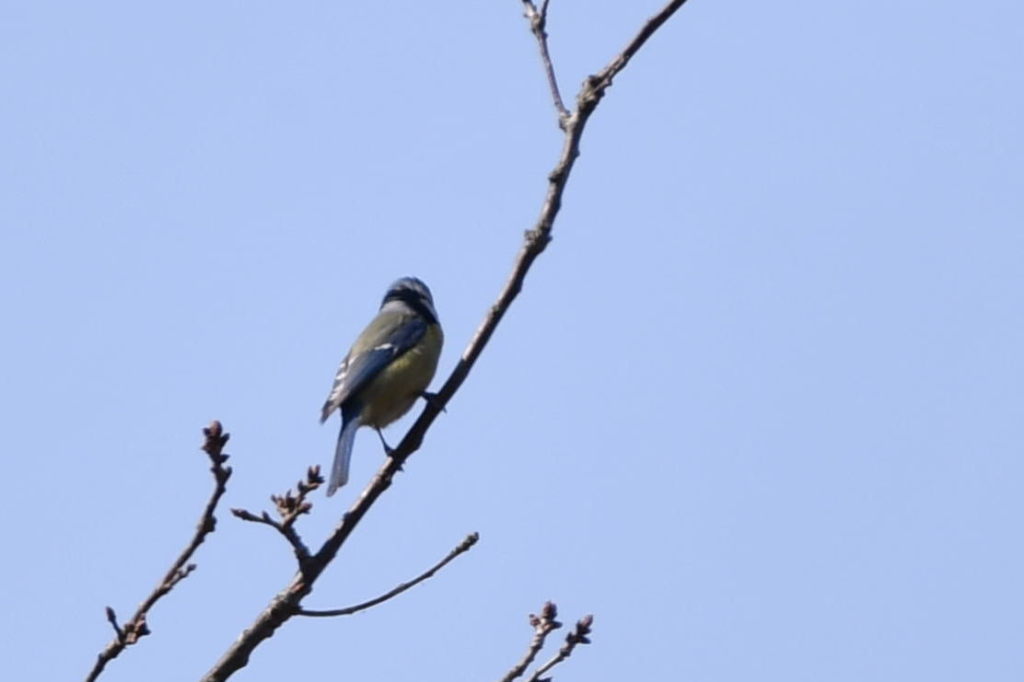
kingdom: Animalia
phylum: Chordata
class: Aves
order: Passeriformes
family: Paridae
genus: Cyanistes
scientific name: Cyanistes caeruleus
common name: Eurasian blue tit
